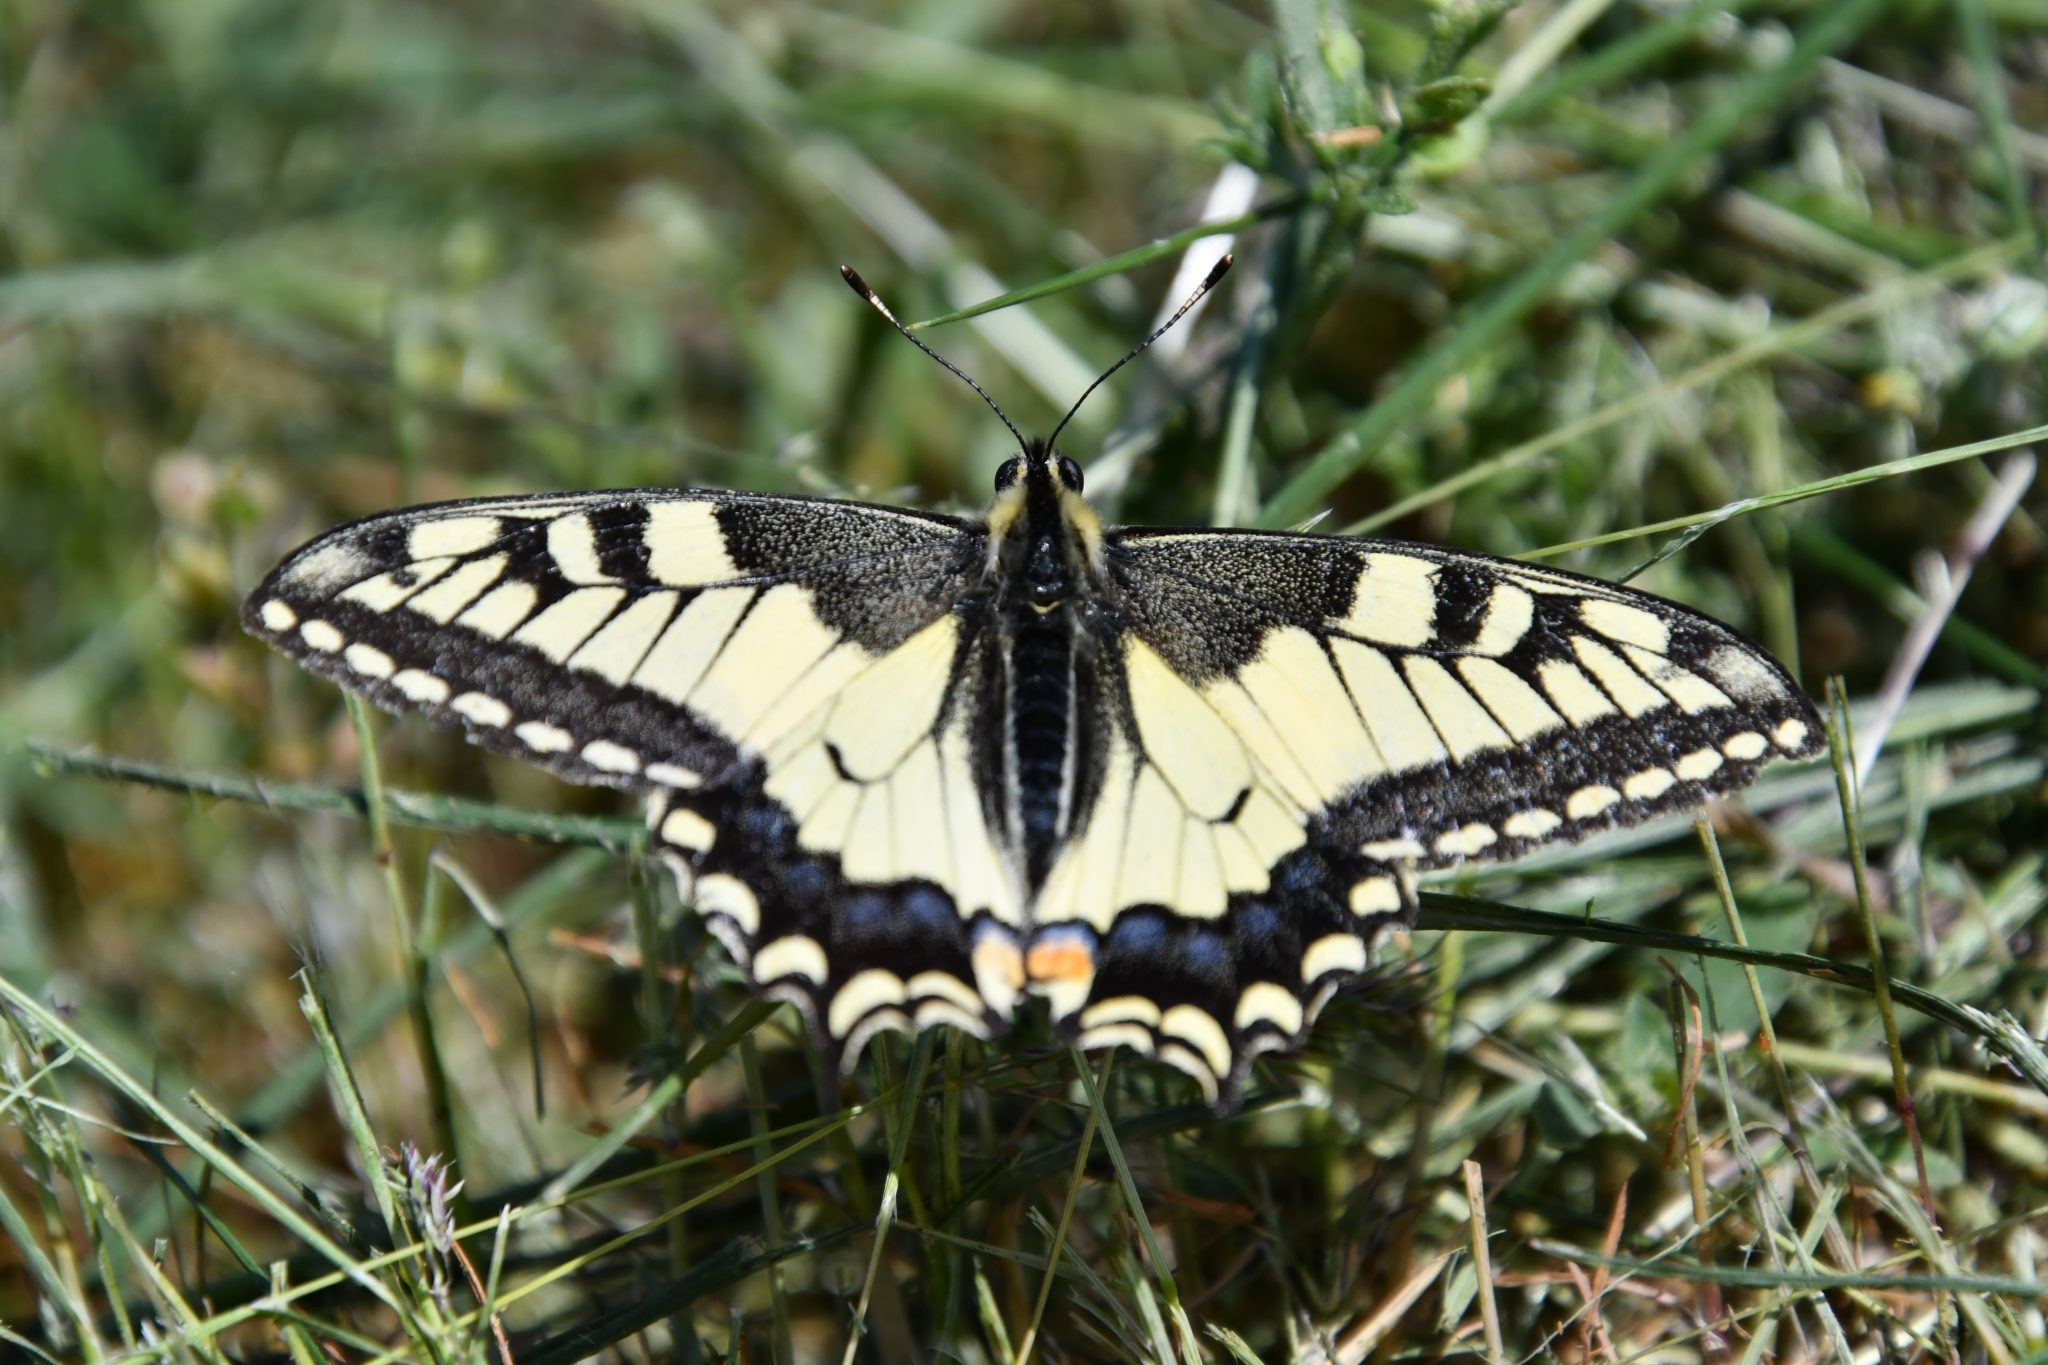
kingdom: Animalia
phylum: Arthropoda
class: Insecta
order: Lepidoptera
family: Papilionidae
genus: Papilio
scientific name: Papilio machaon
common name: Swallowtail
